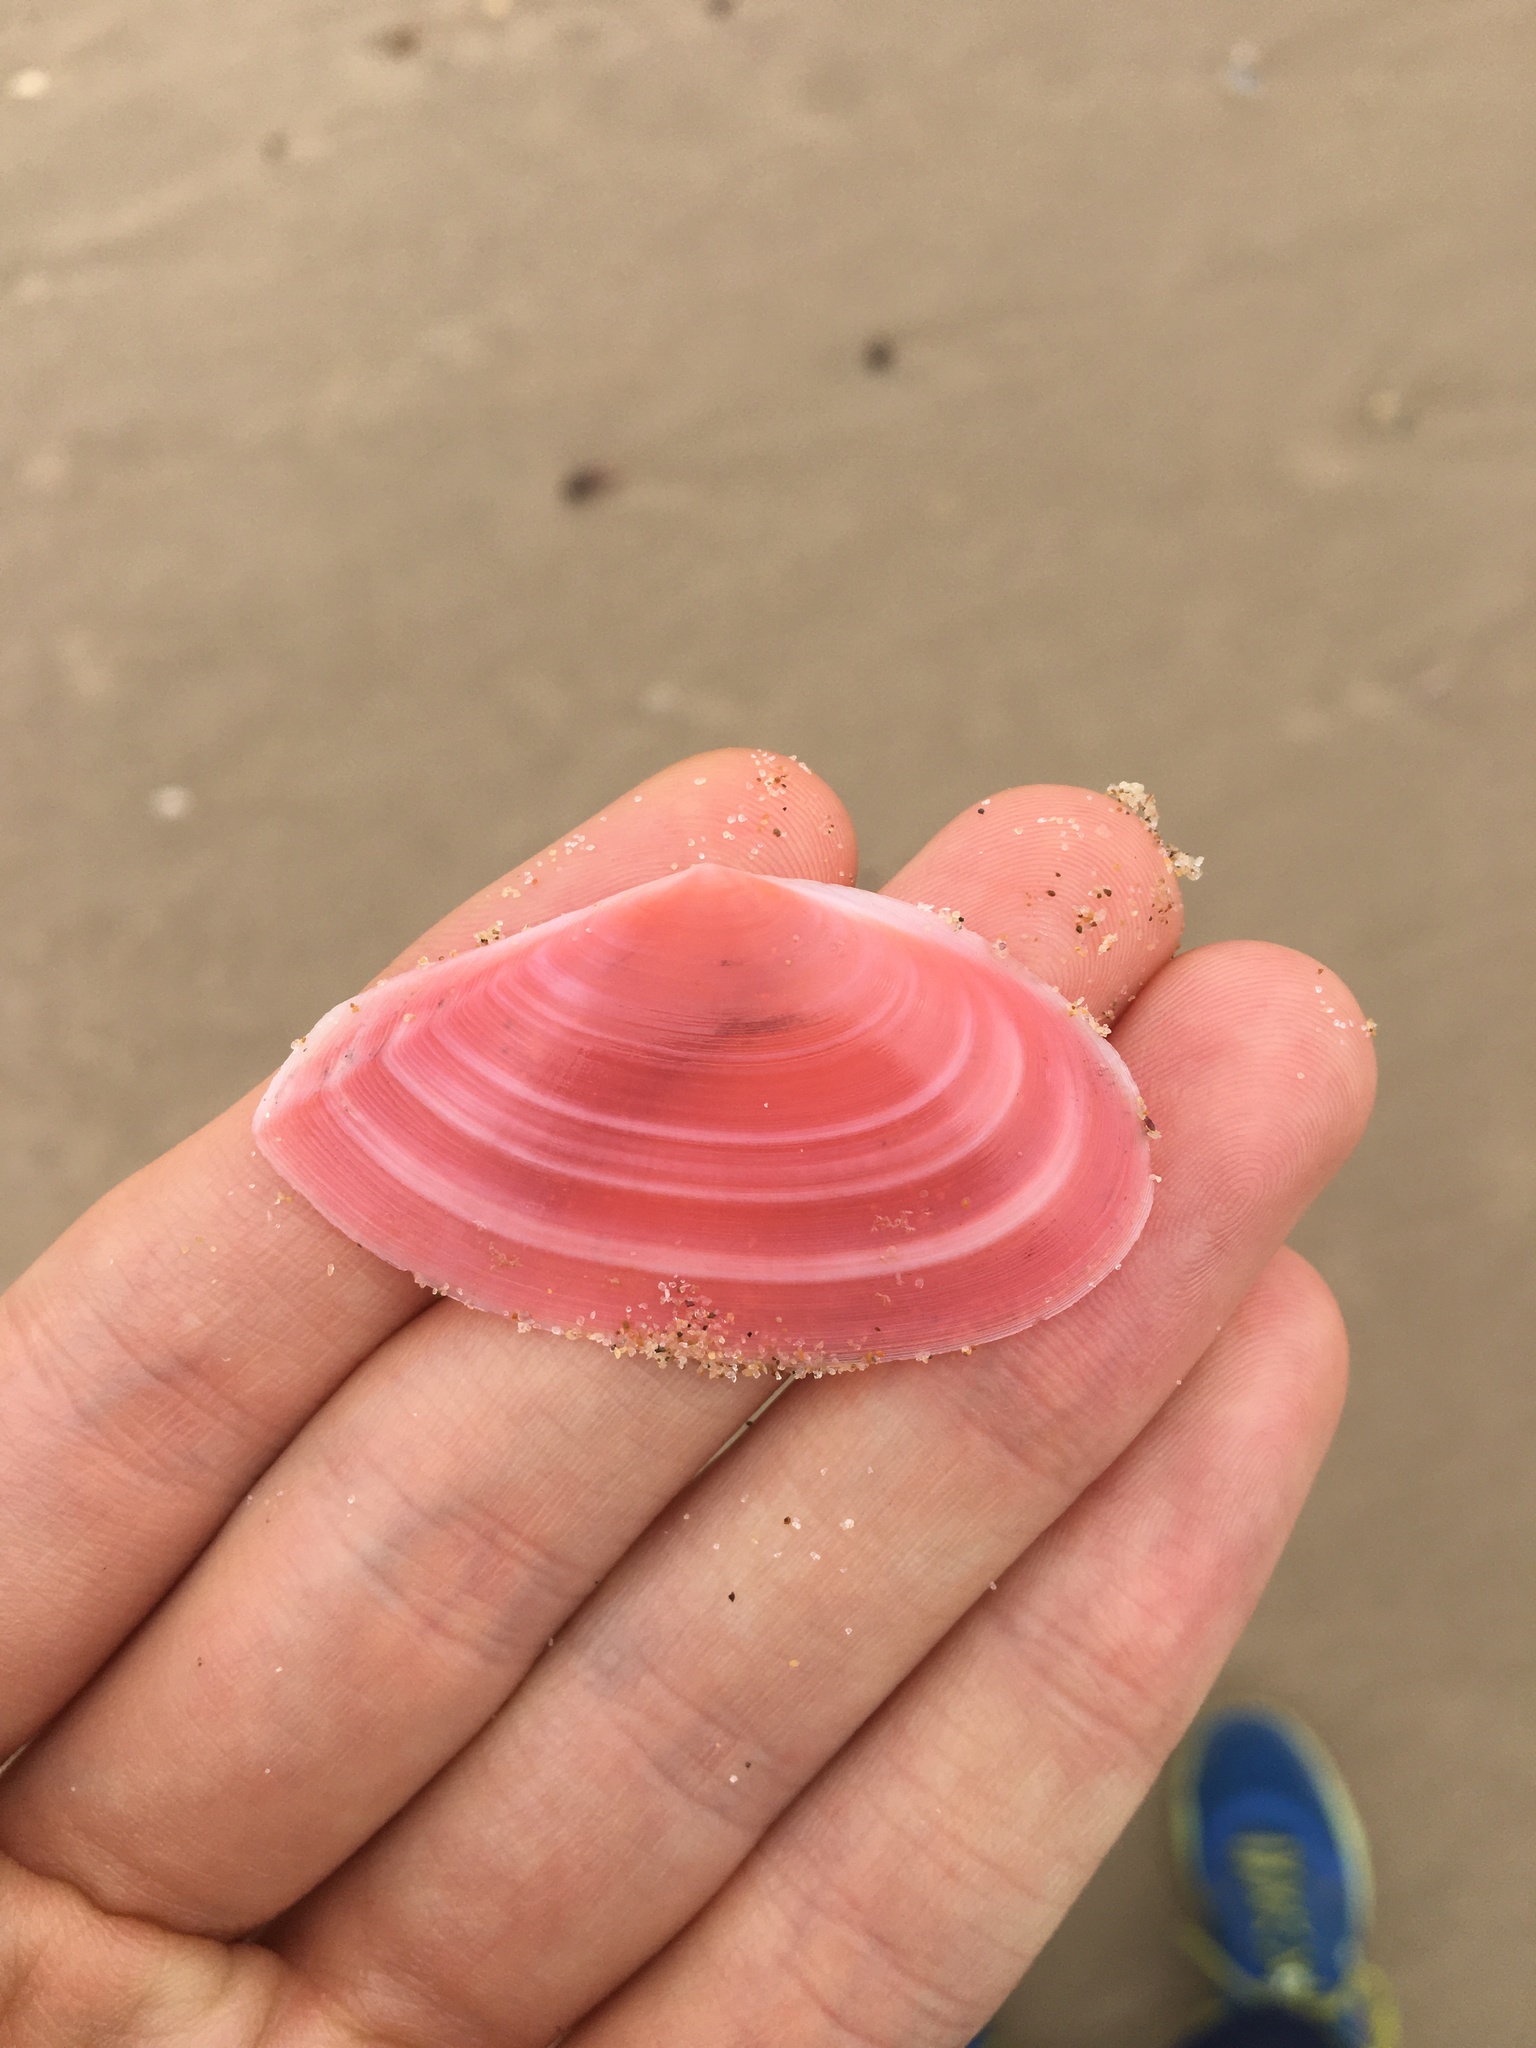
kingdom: Animalia
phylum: Mollusca
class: Bivalvia
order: Cardiida
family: Tellinidae
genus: Tellinota
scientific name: Tellinota albinella
